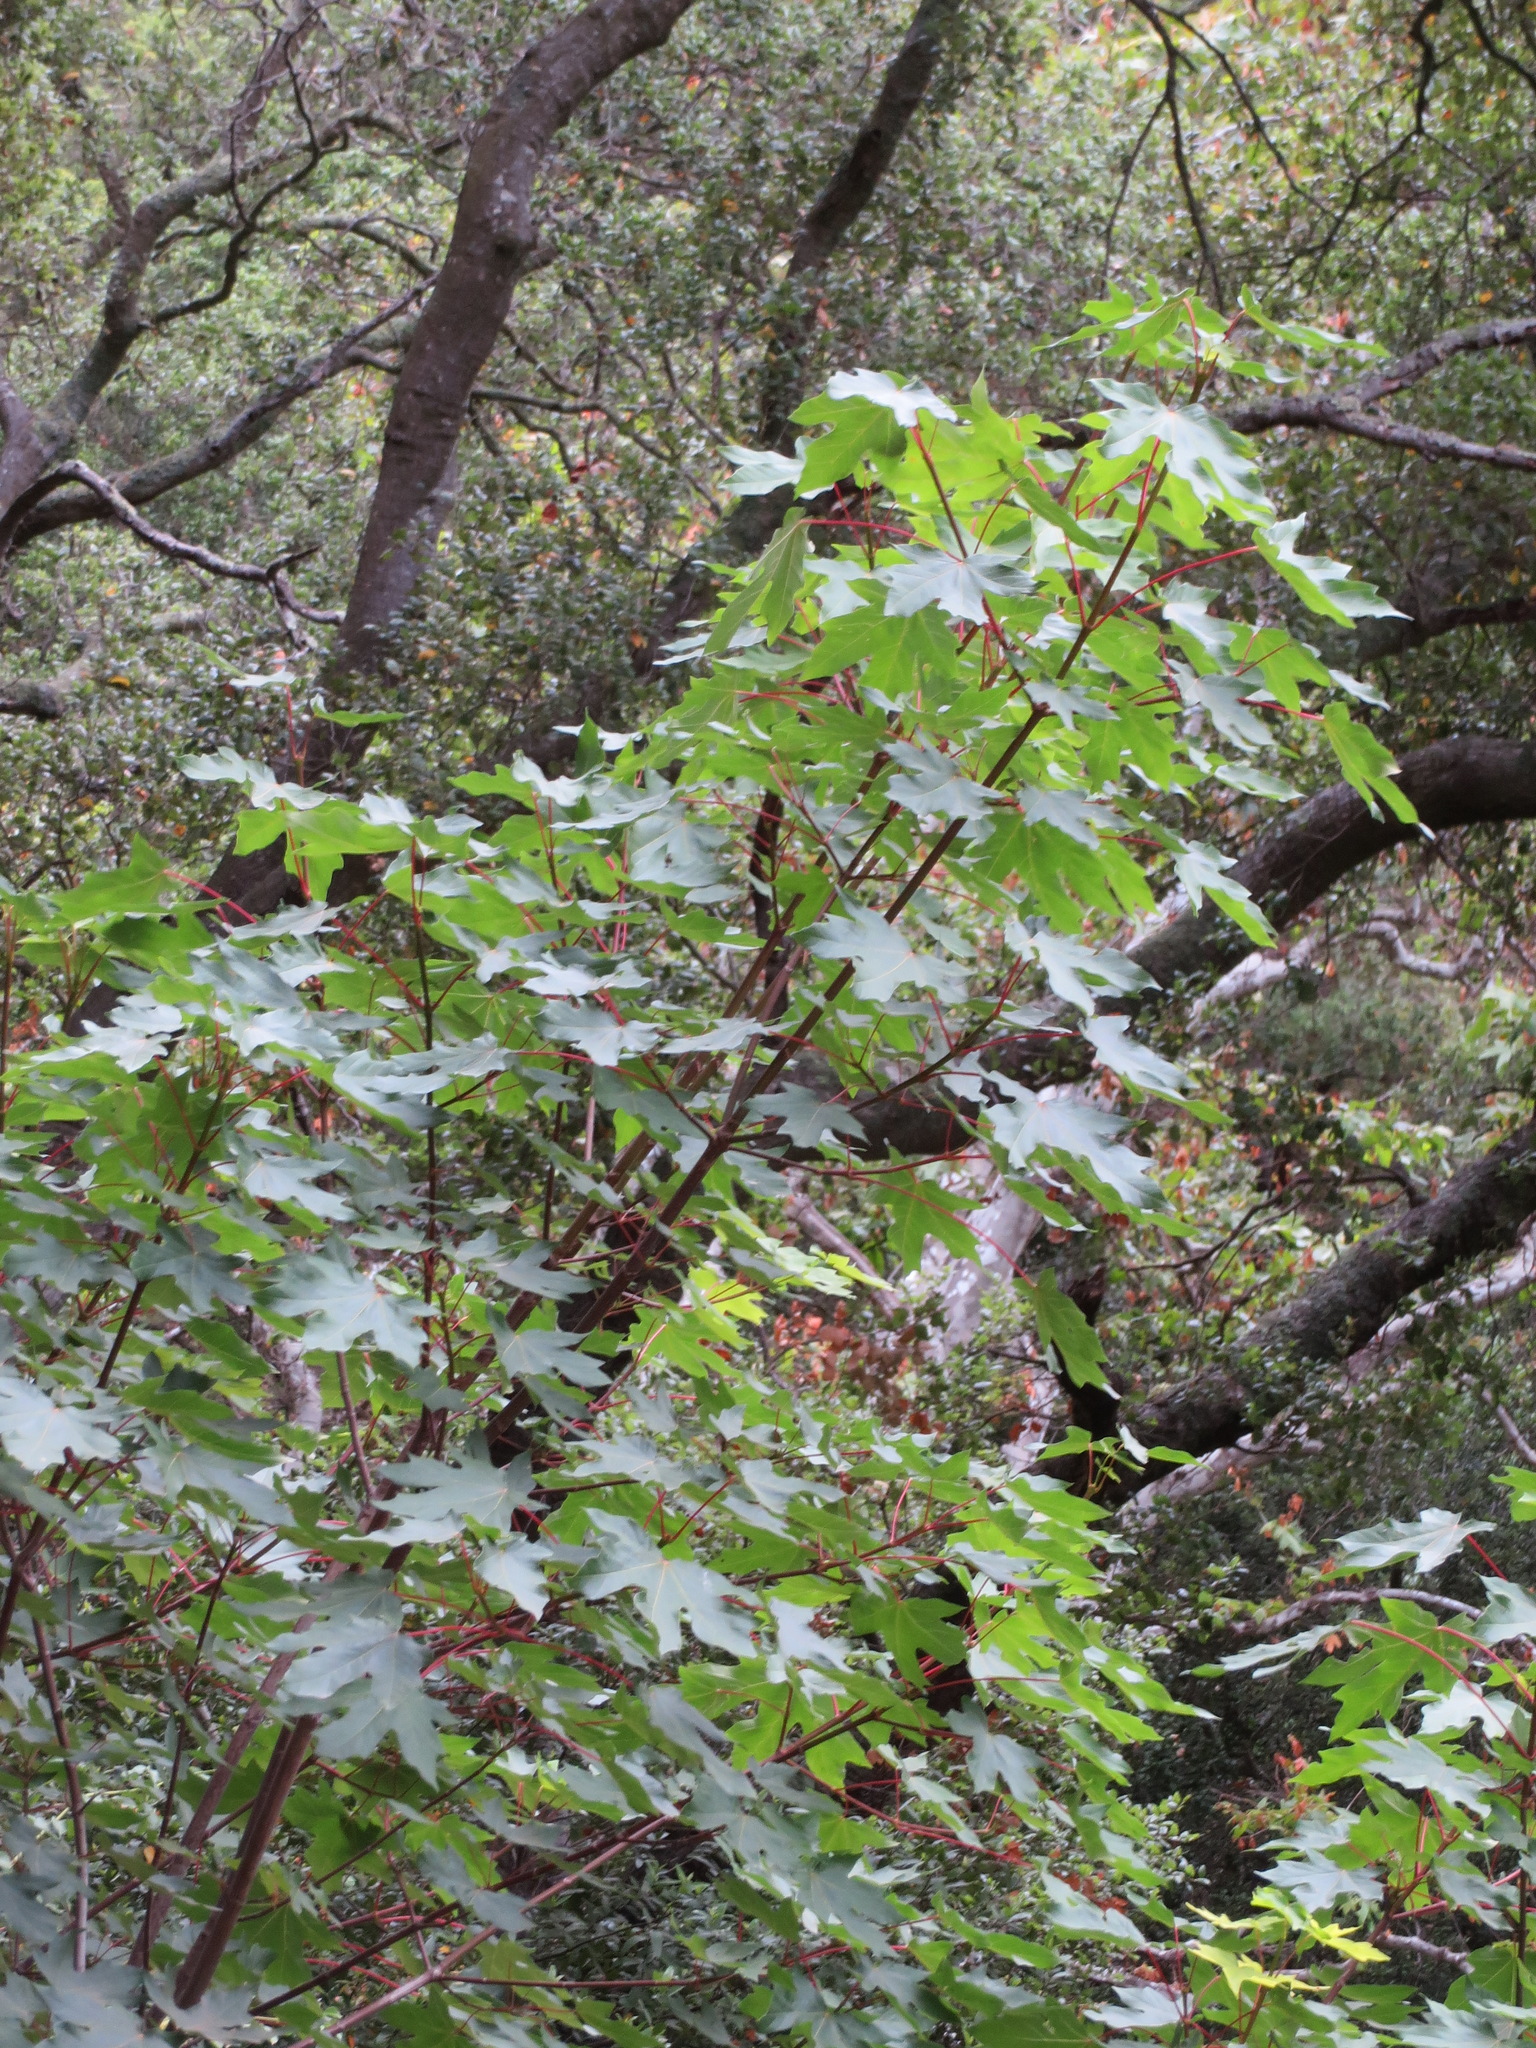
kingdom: Plantae
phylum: Tracheophyta
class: Magnoliopsida
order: Sapindales
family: Sapindaceae
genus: Acer
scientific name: Acer macrophyllum
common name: Oregon maple
